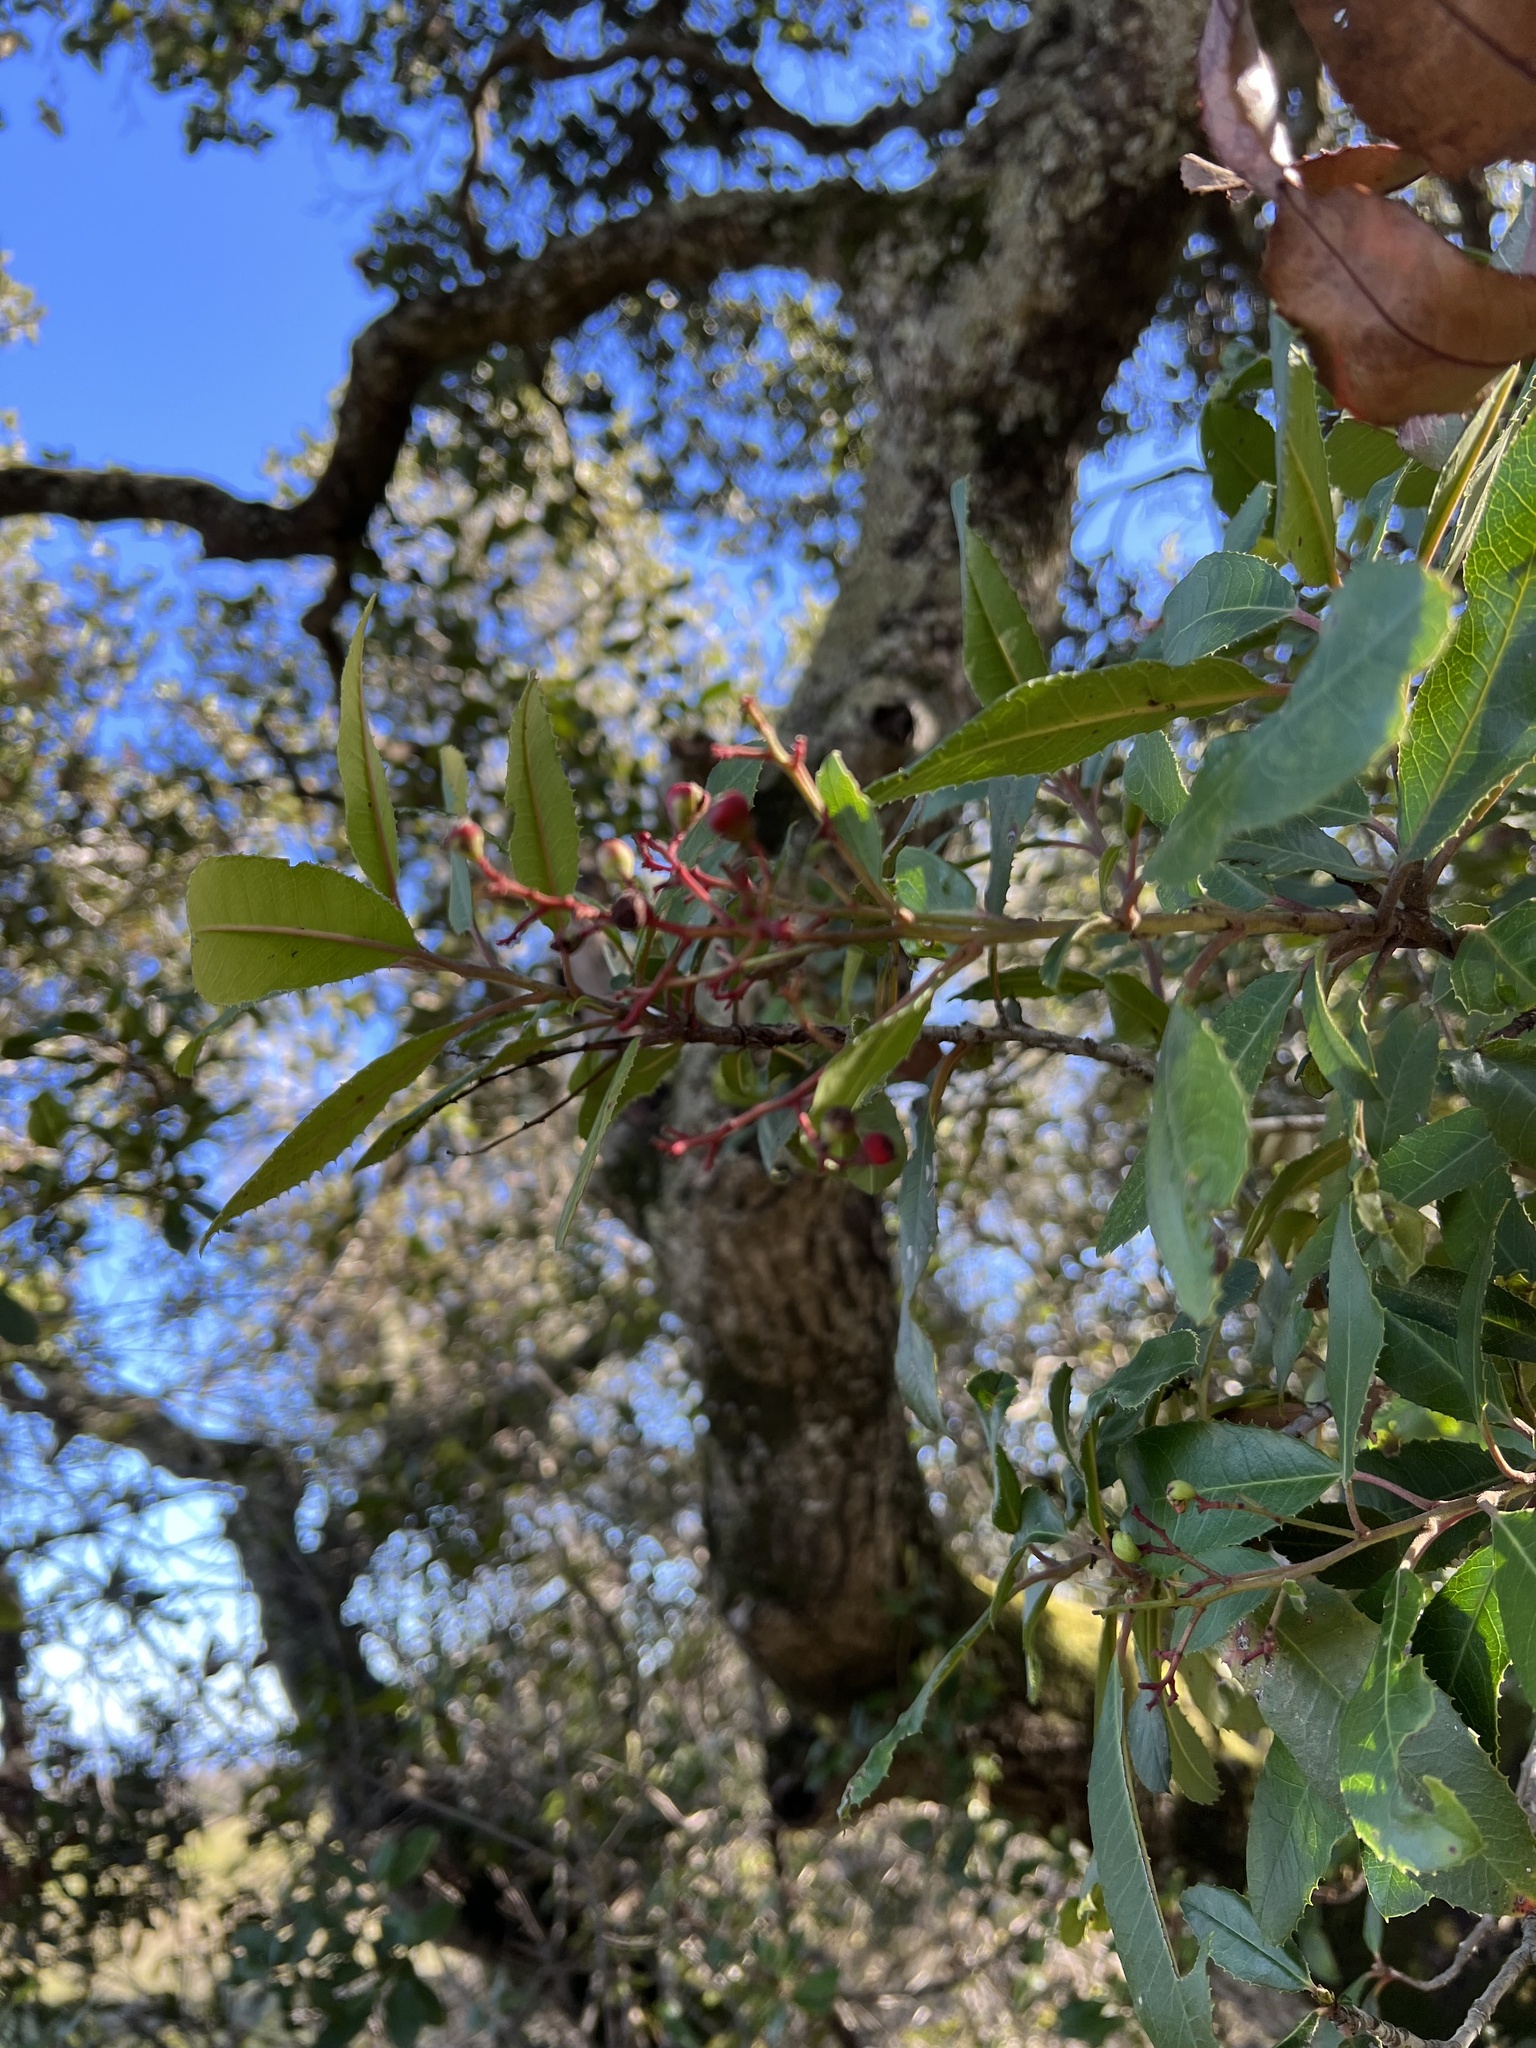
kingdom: Plantae
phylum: Tracheophyta
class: Magnoliopsida
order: Rosales
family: Rosaceae
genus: Heteromeles
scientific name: Heteromeles arbutifolia
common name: California-holly
